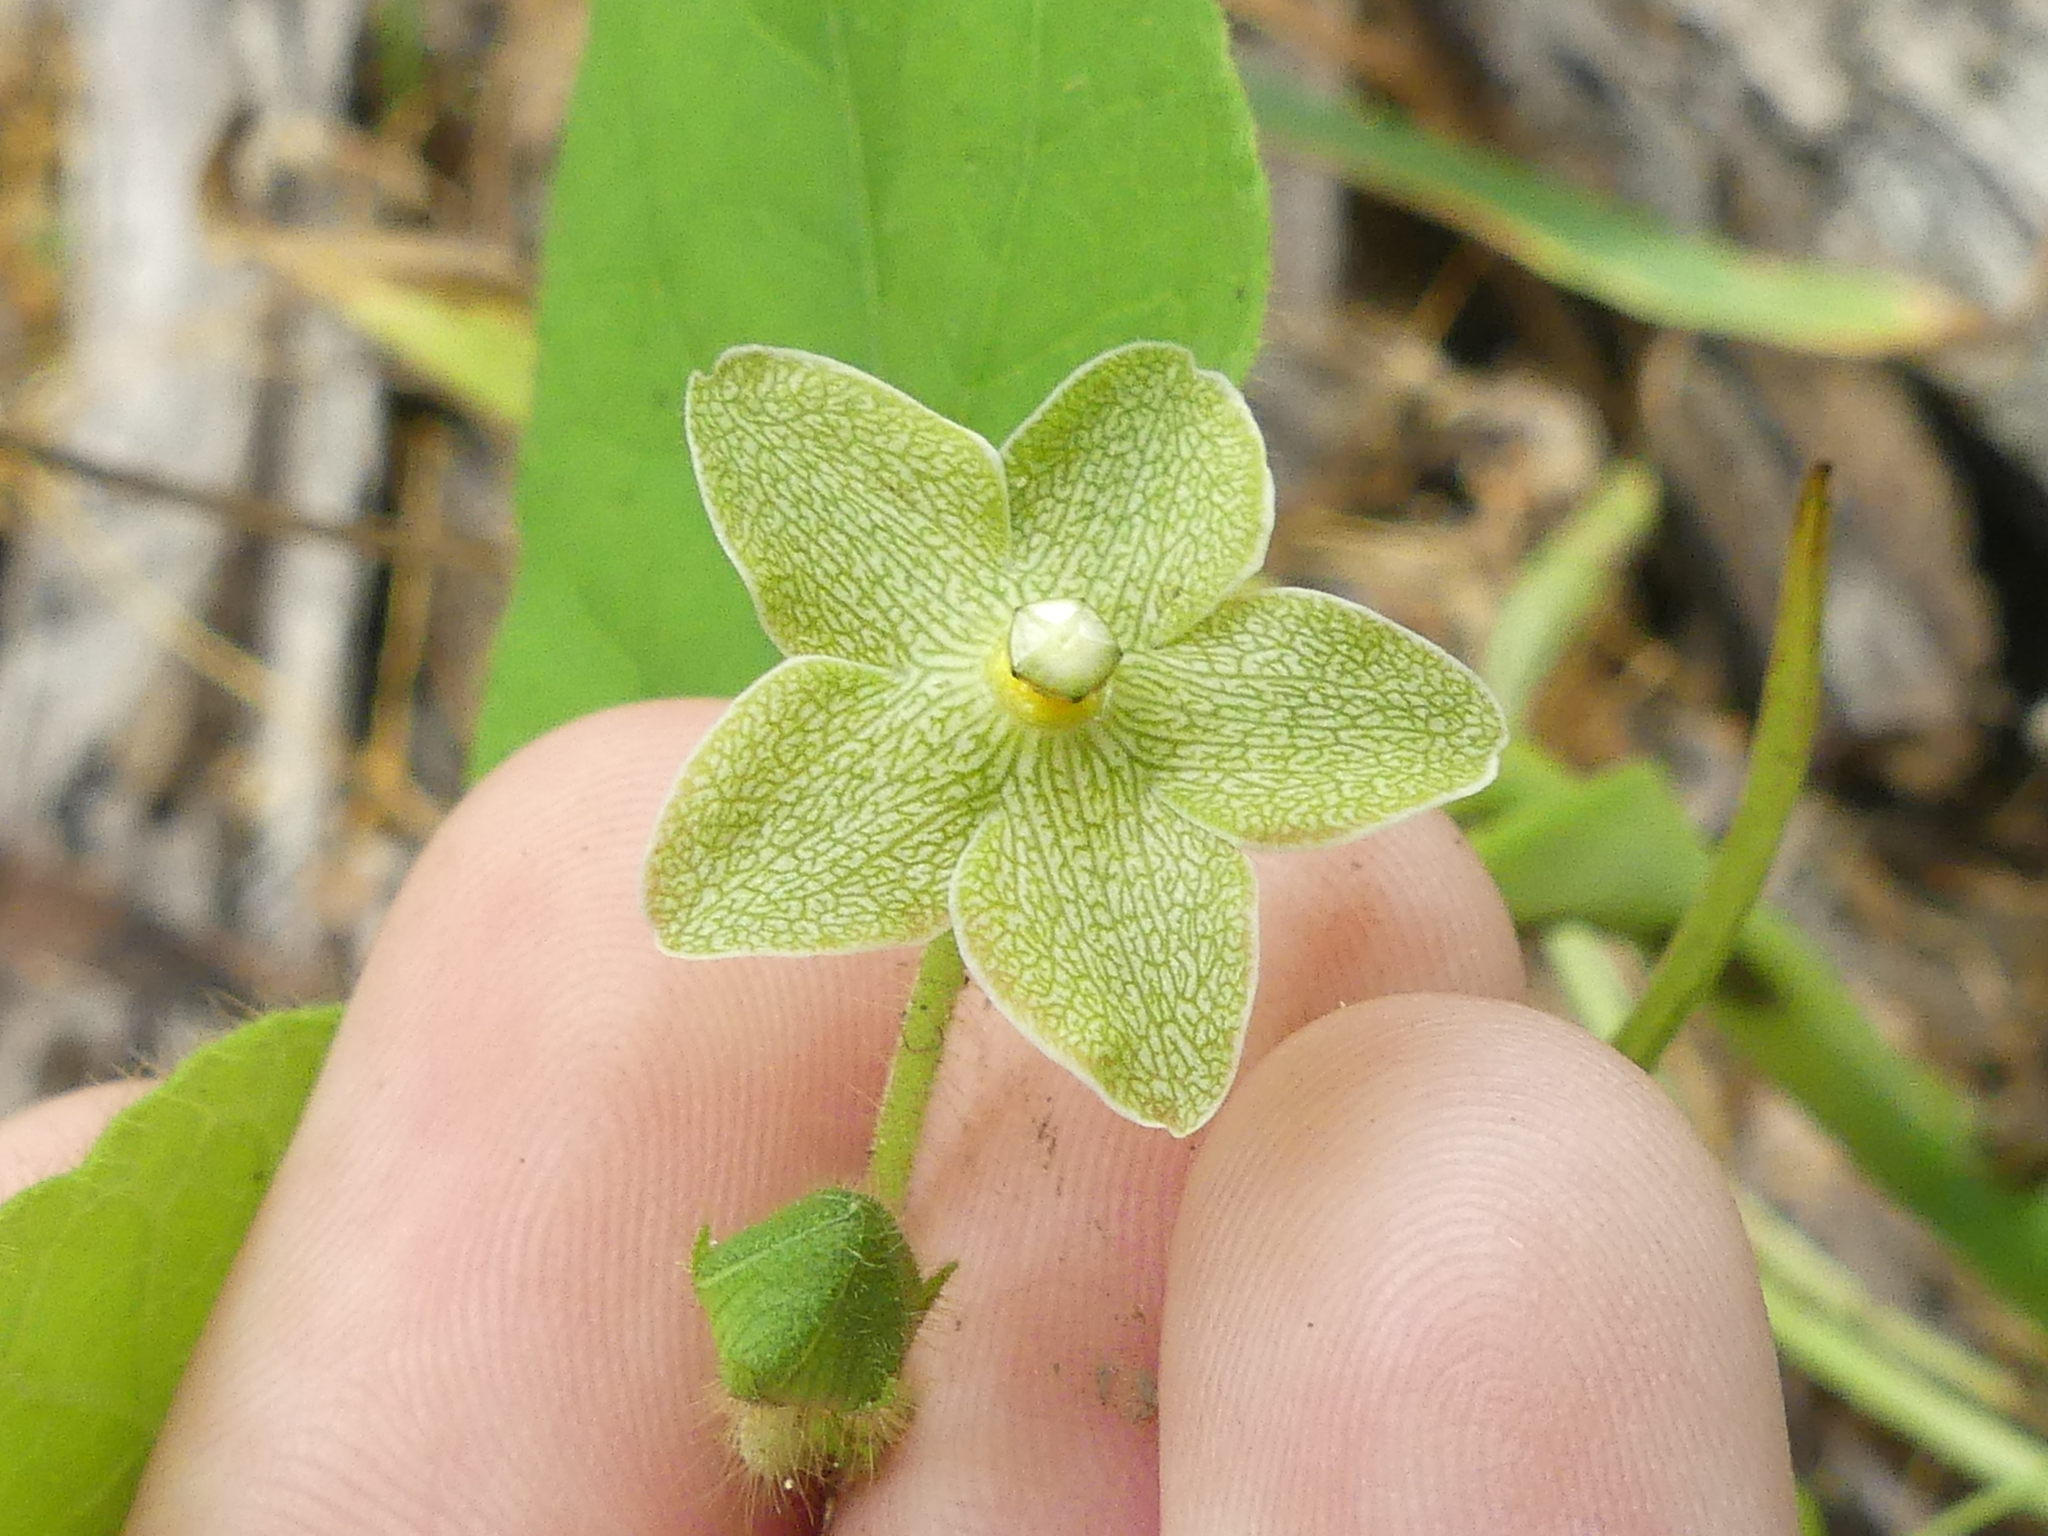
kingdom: Plantae
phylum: Tracheophyta
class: Magnoliopsida
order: Gentianales
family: Apocynaceae
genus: Dictyanthus
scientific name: Dictyanthus reticulatus
